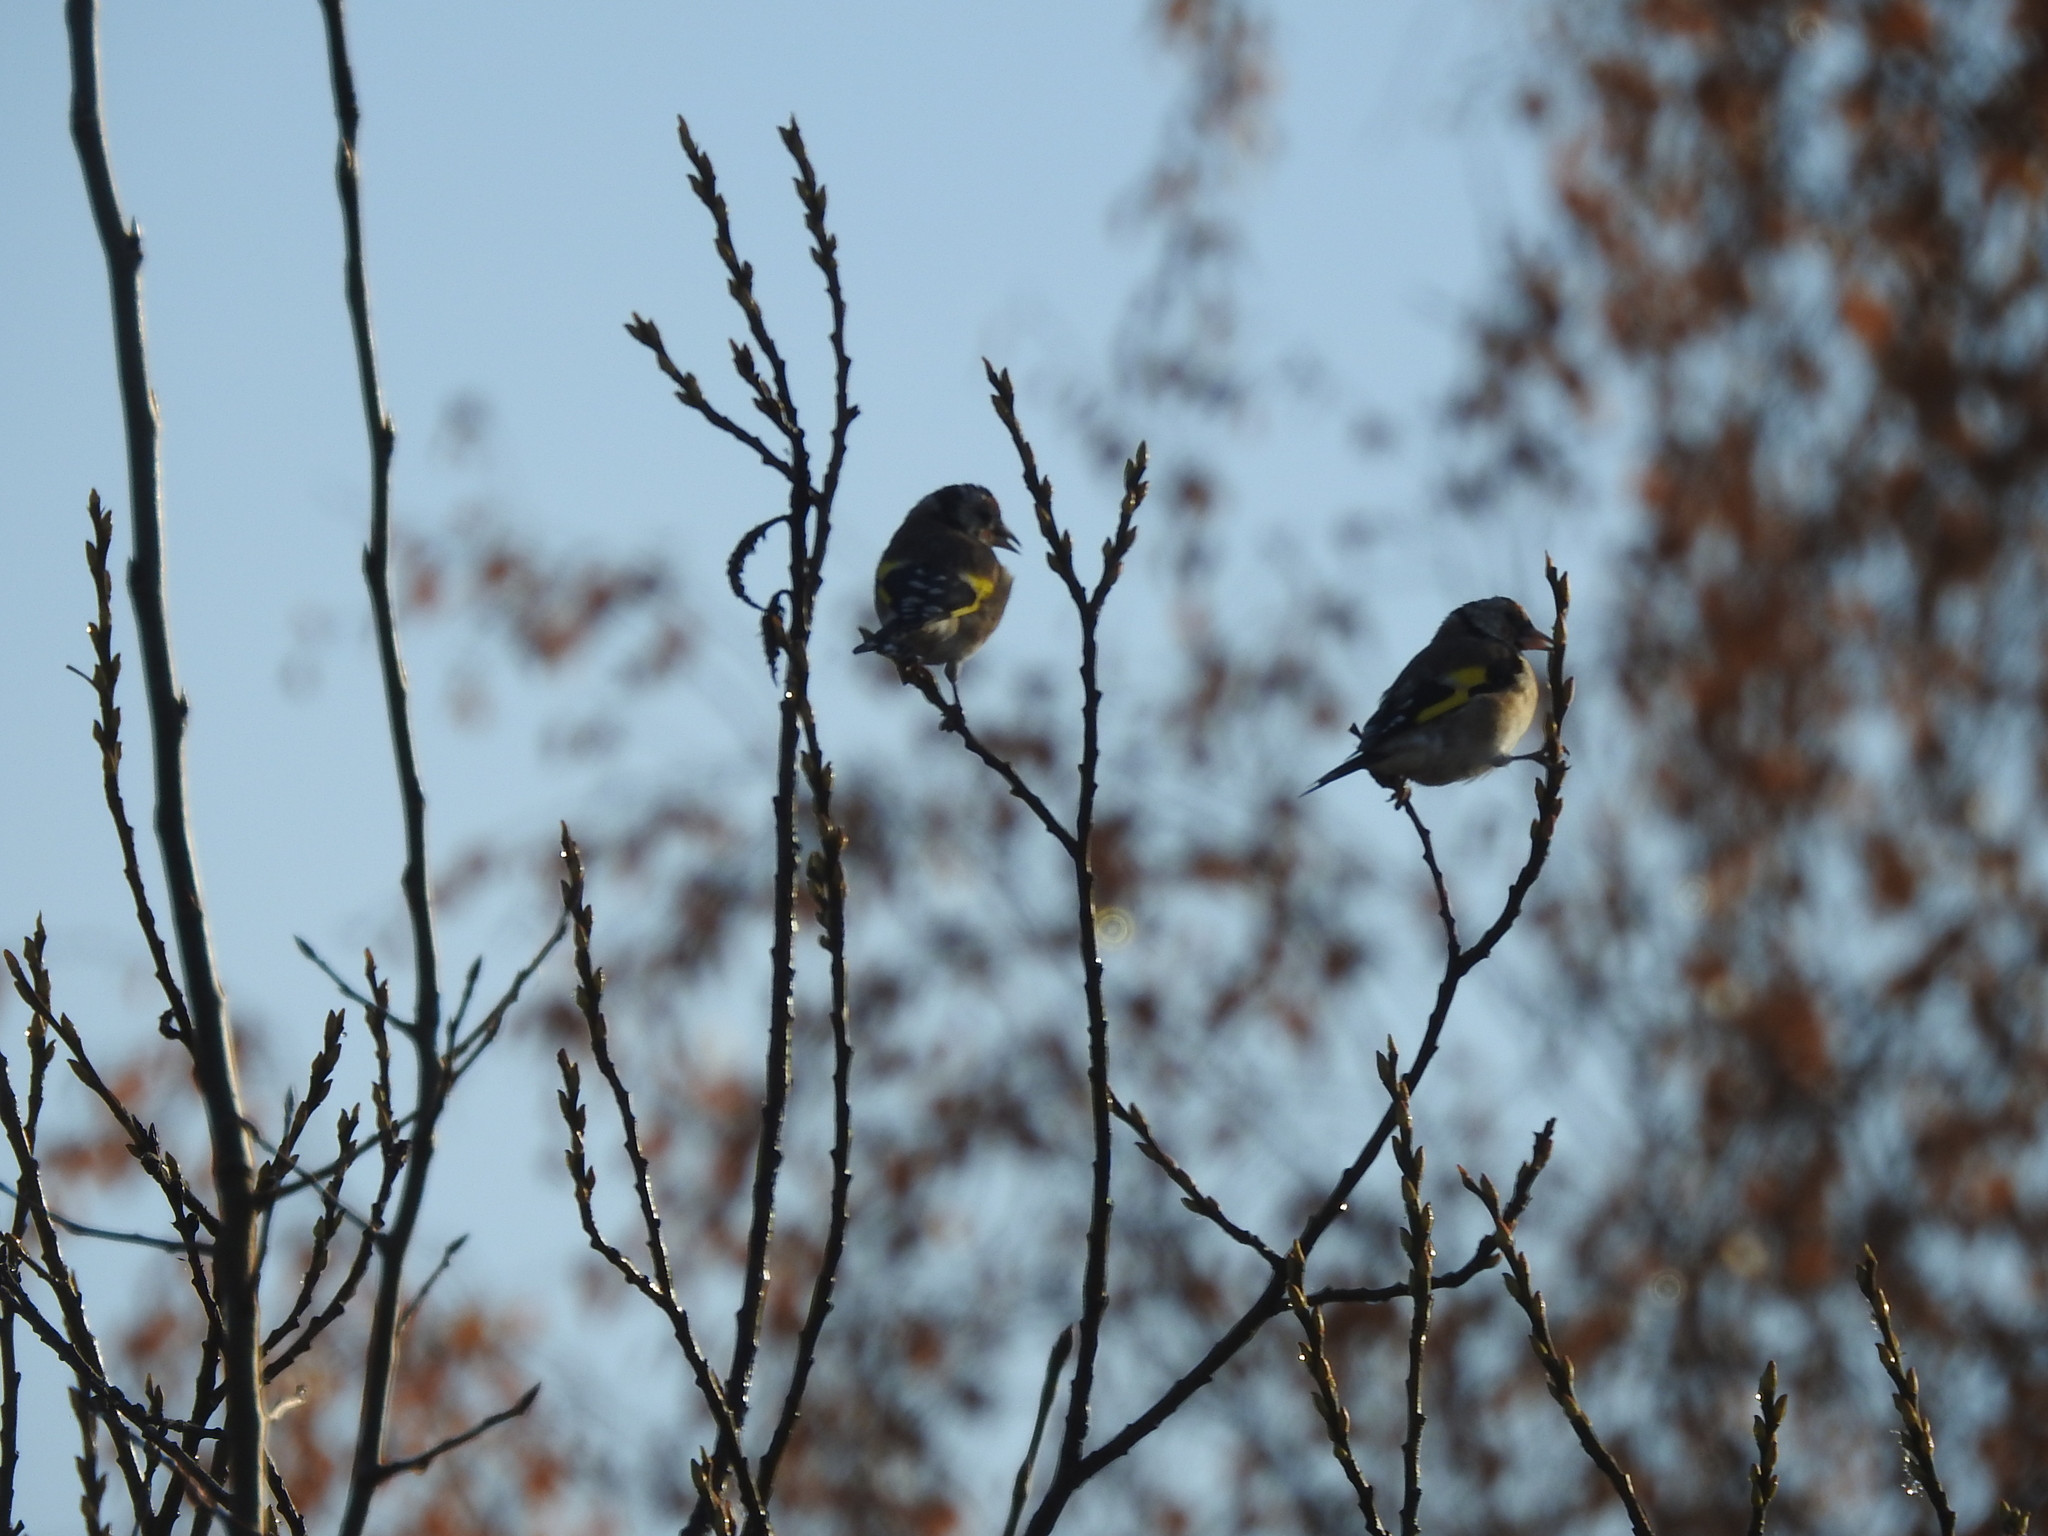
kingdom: Animalia
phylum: Chordata
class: Aves
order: Passeriformes
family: Fringillidae
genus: Carduelis
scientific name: Carduelis carduelis
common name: European goldfinch
